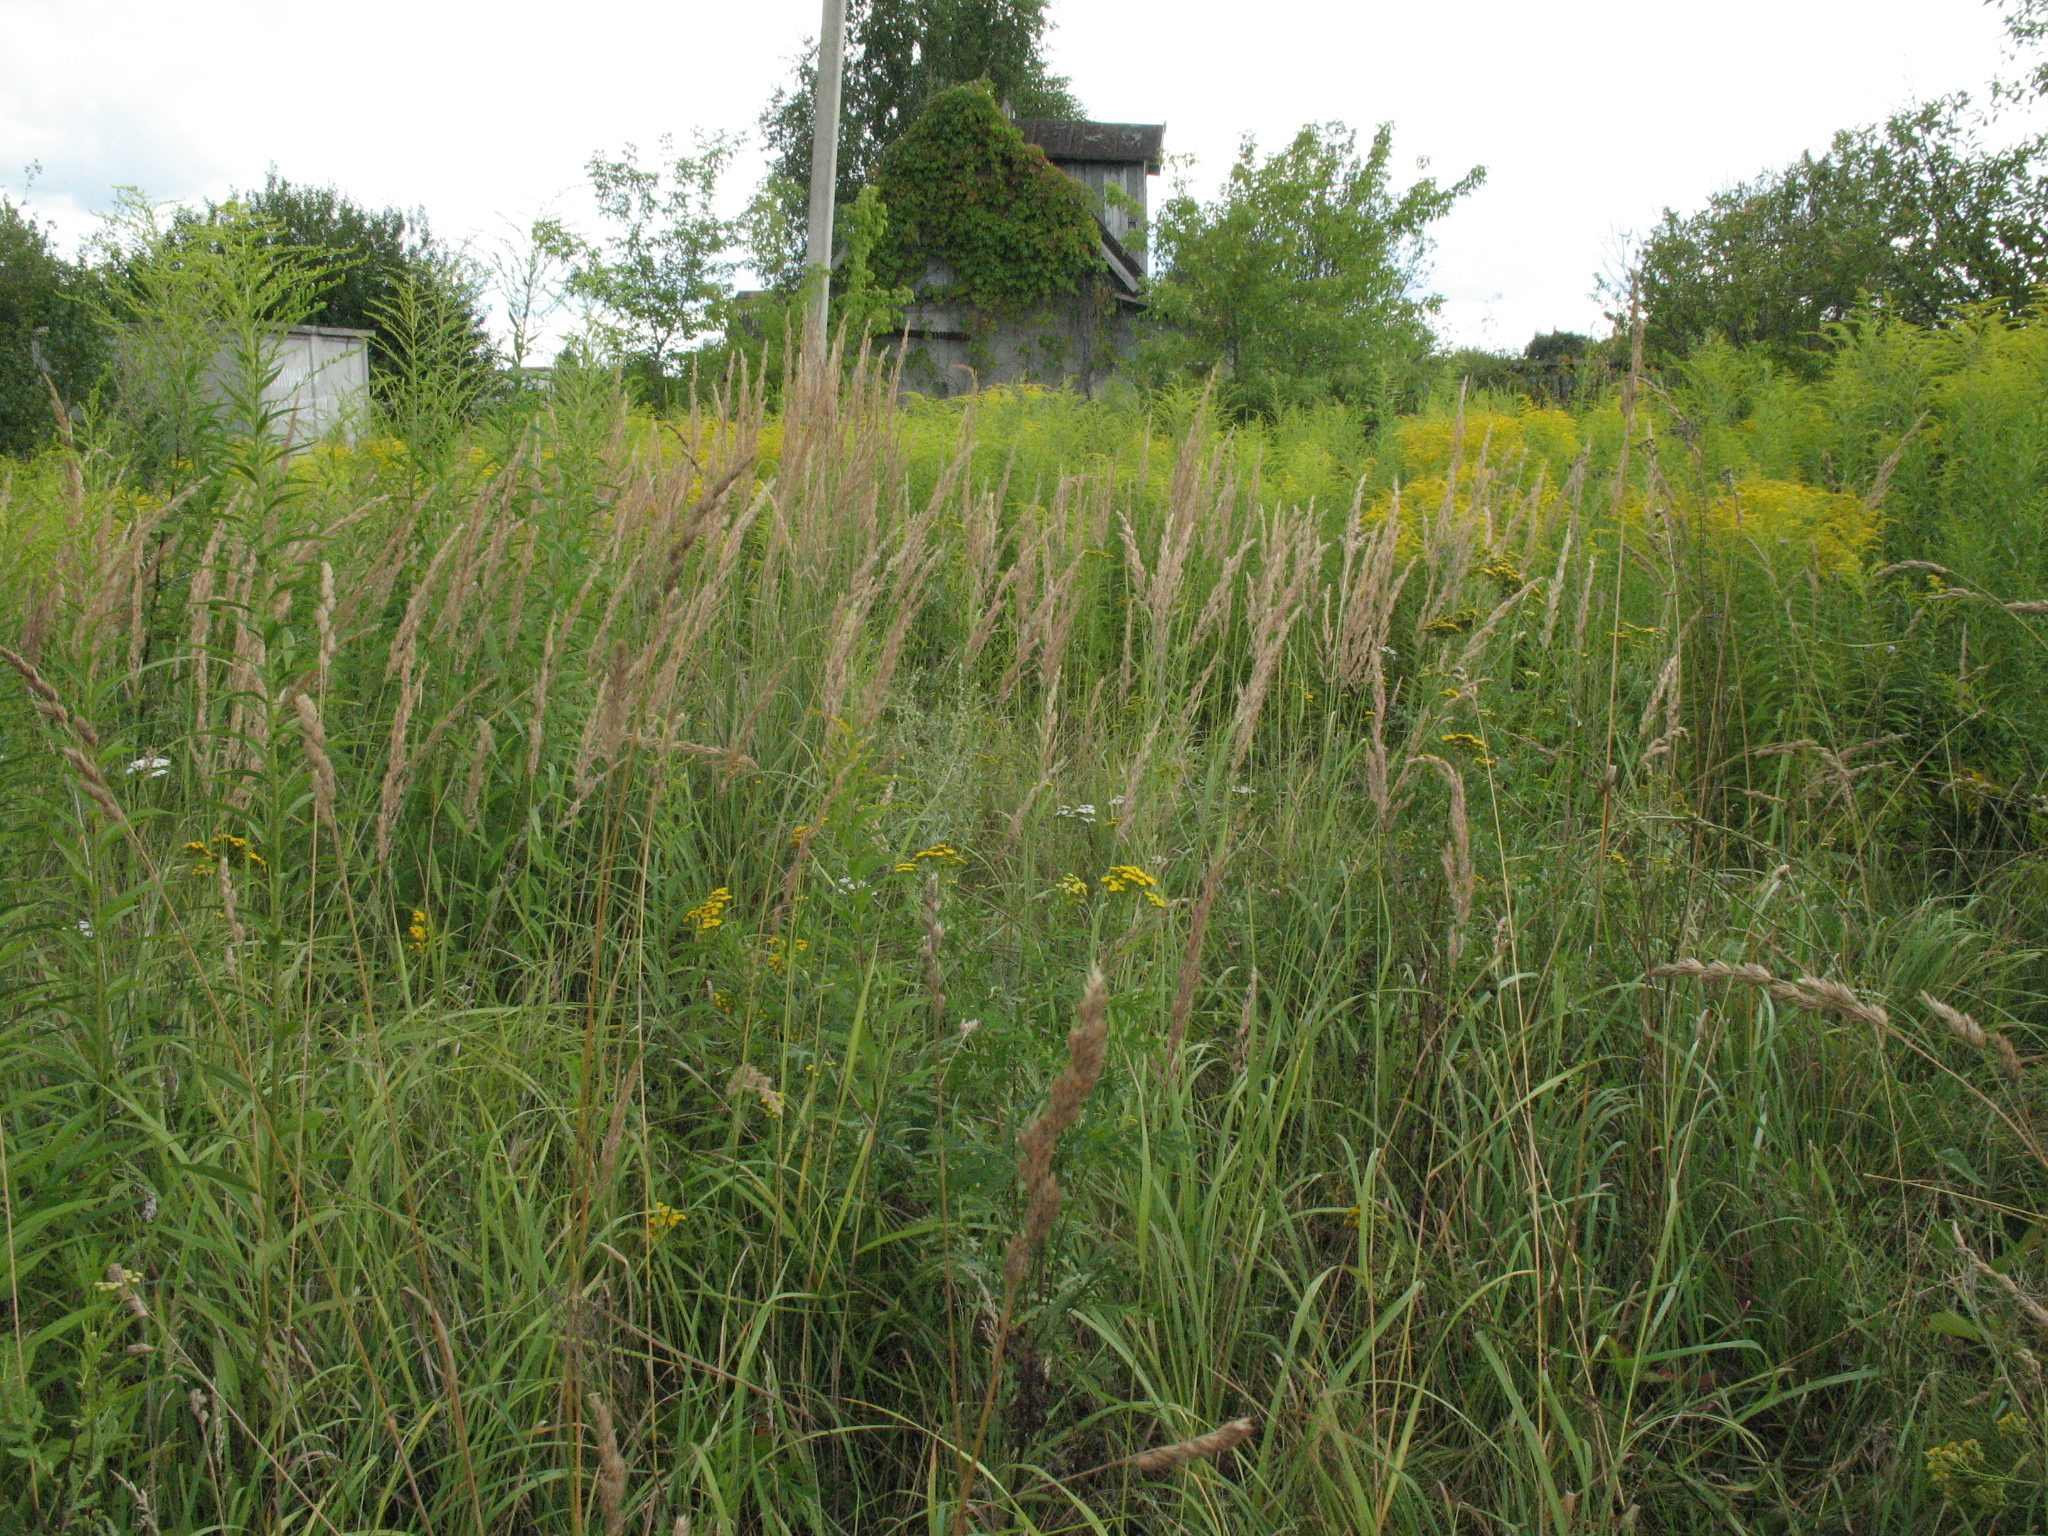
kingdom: Plantae
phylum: Tracheophyta
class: Liliopsida
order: Poales
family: Poaceae
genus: Calamagrostis
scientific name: Calamagrostis epigejos
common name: Wood small-reed
